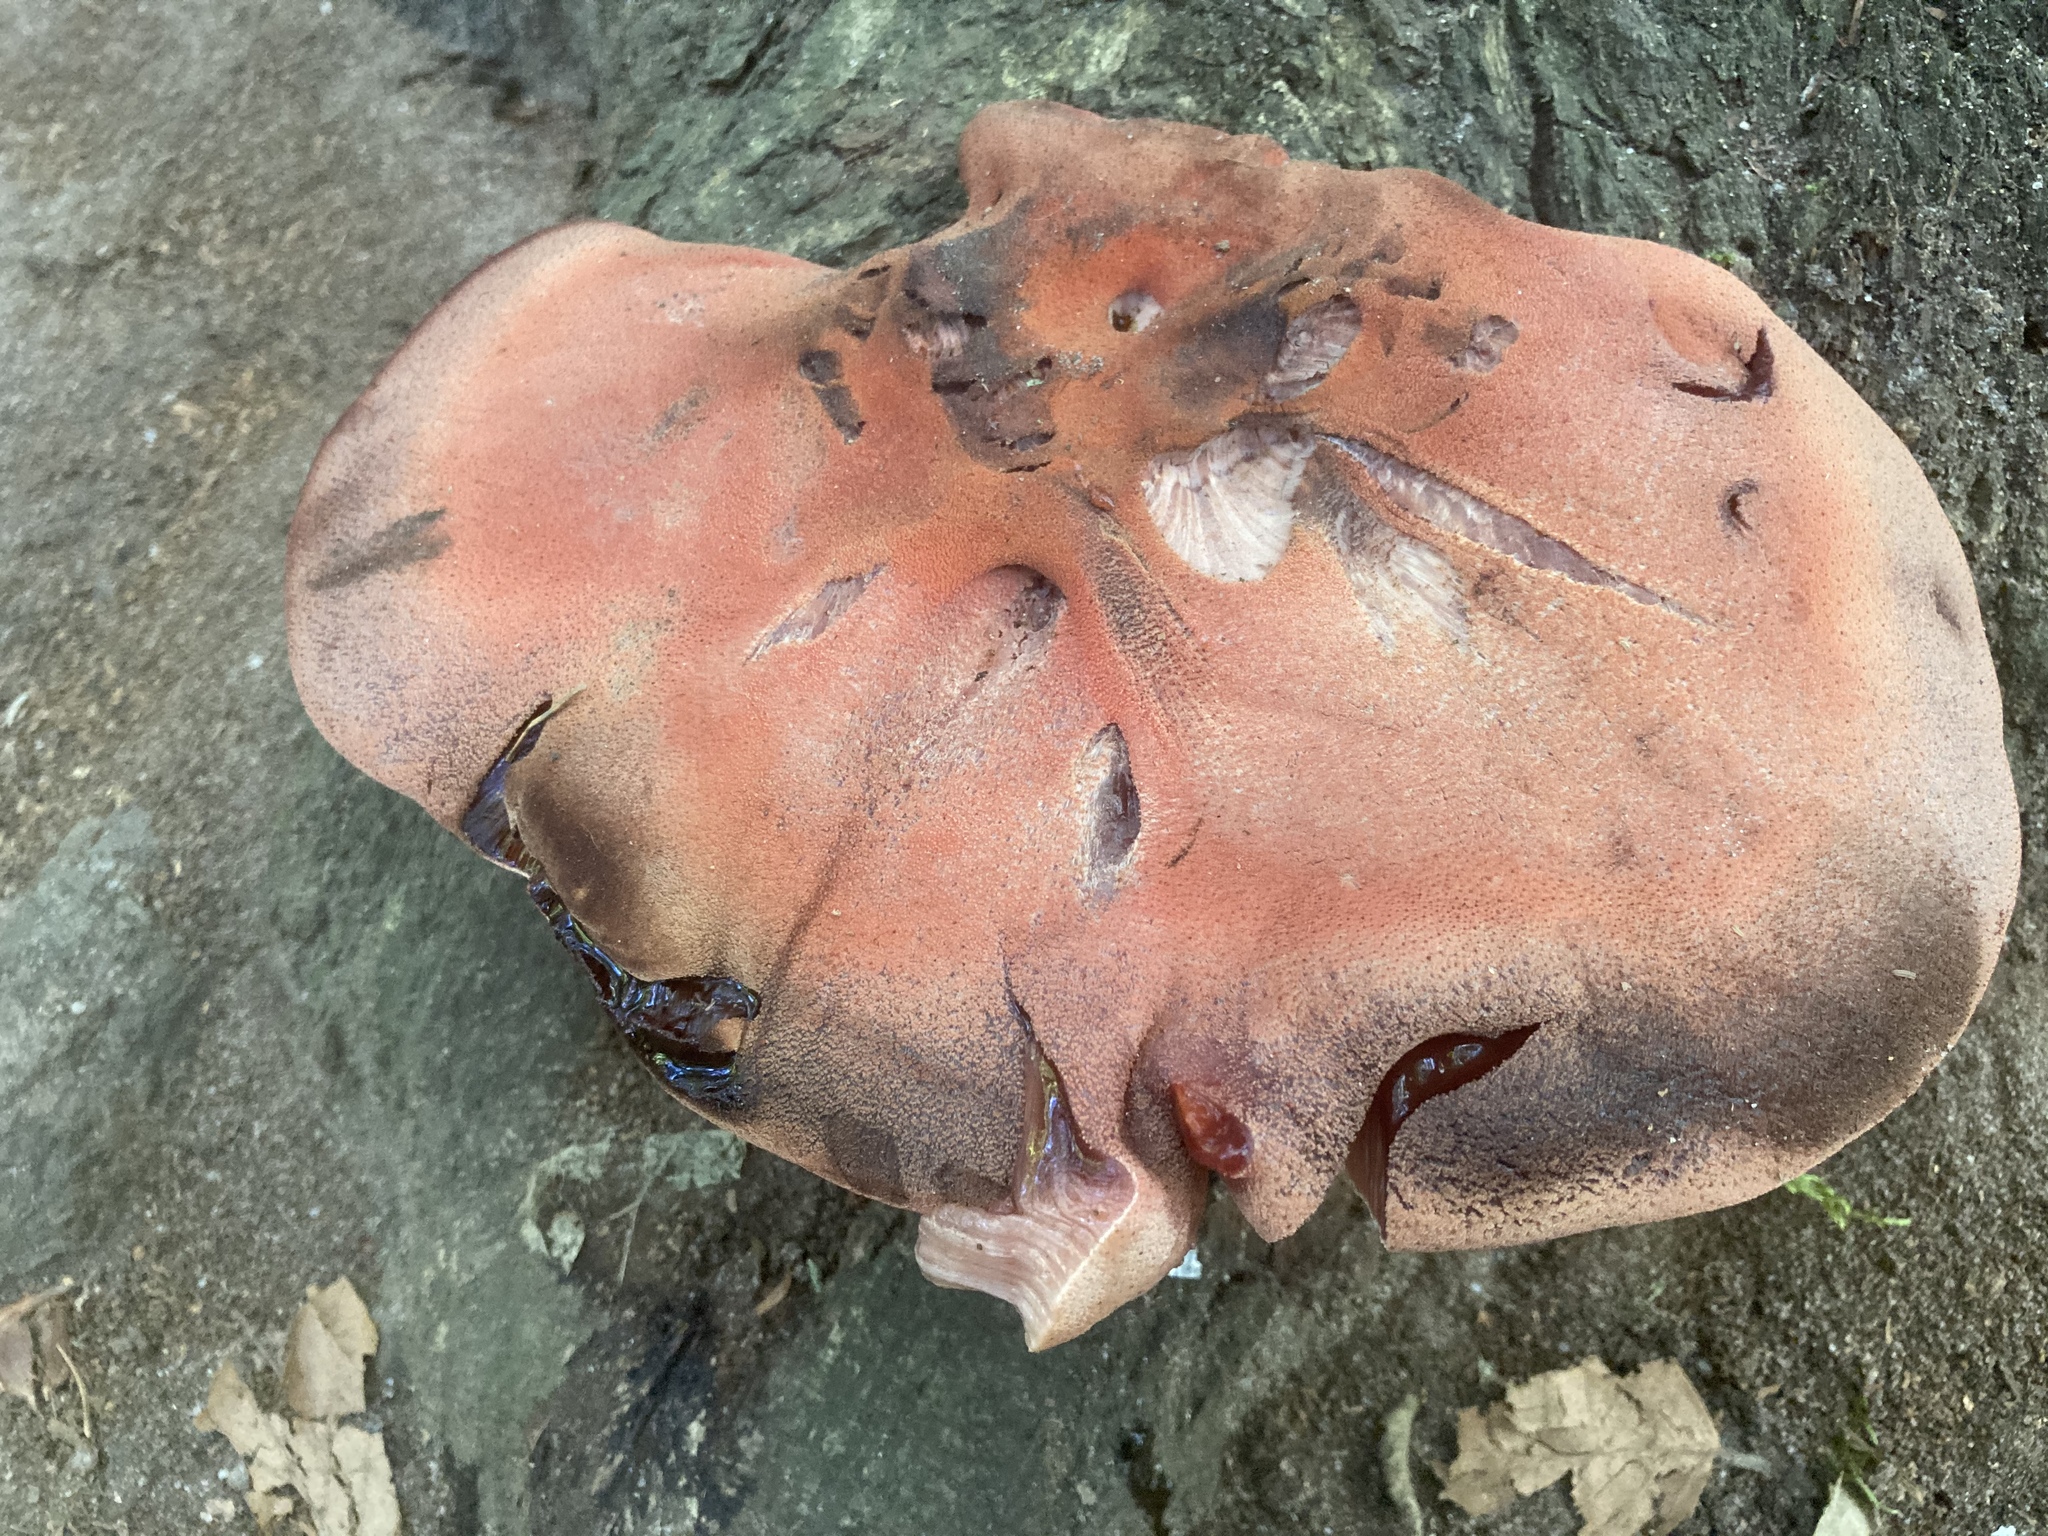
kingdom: Fungi
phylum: Basidiomycota
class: Agaricomycetes
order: Agaricales
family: Fistulinaceae
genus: Fistulina
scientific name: Fistulina hepatica
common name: Beef-steak fungus
